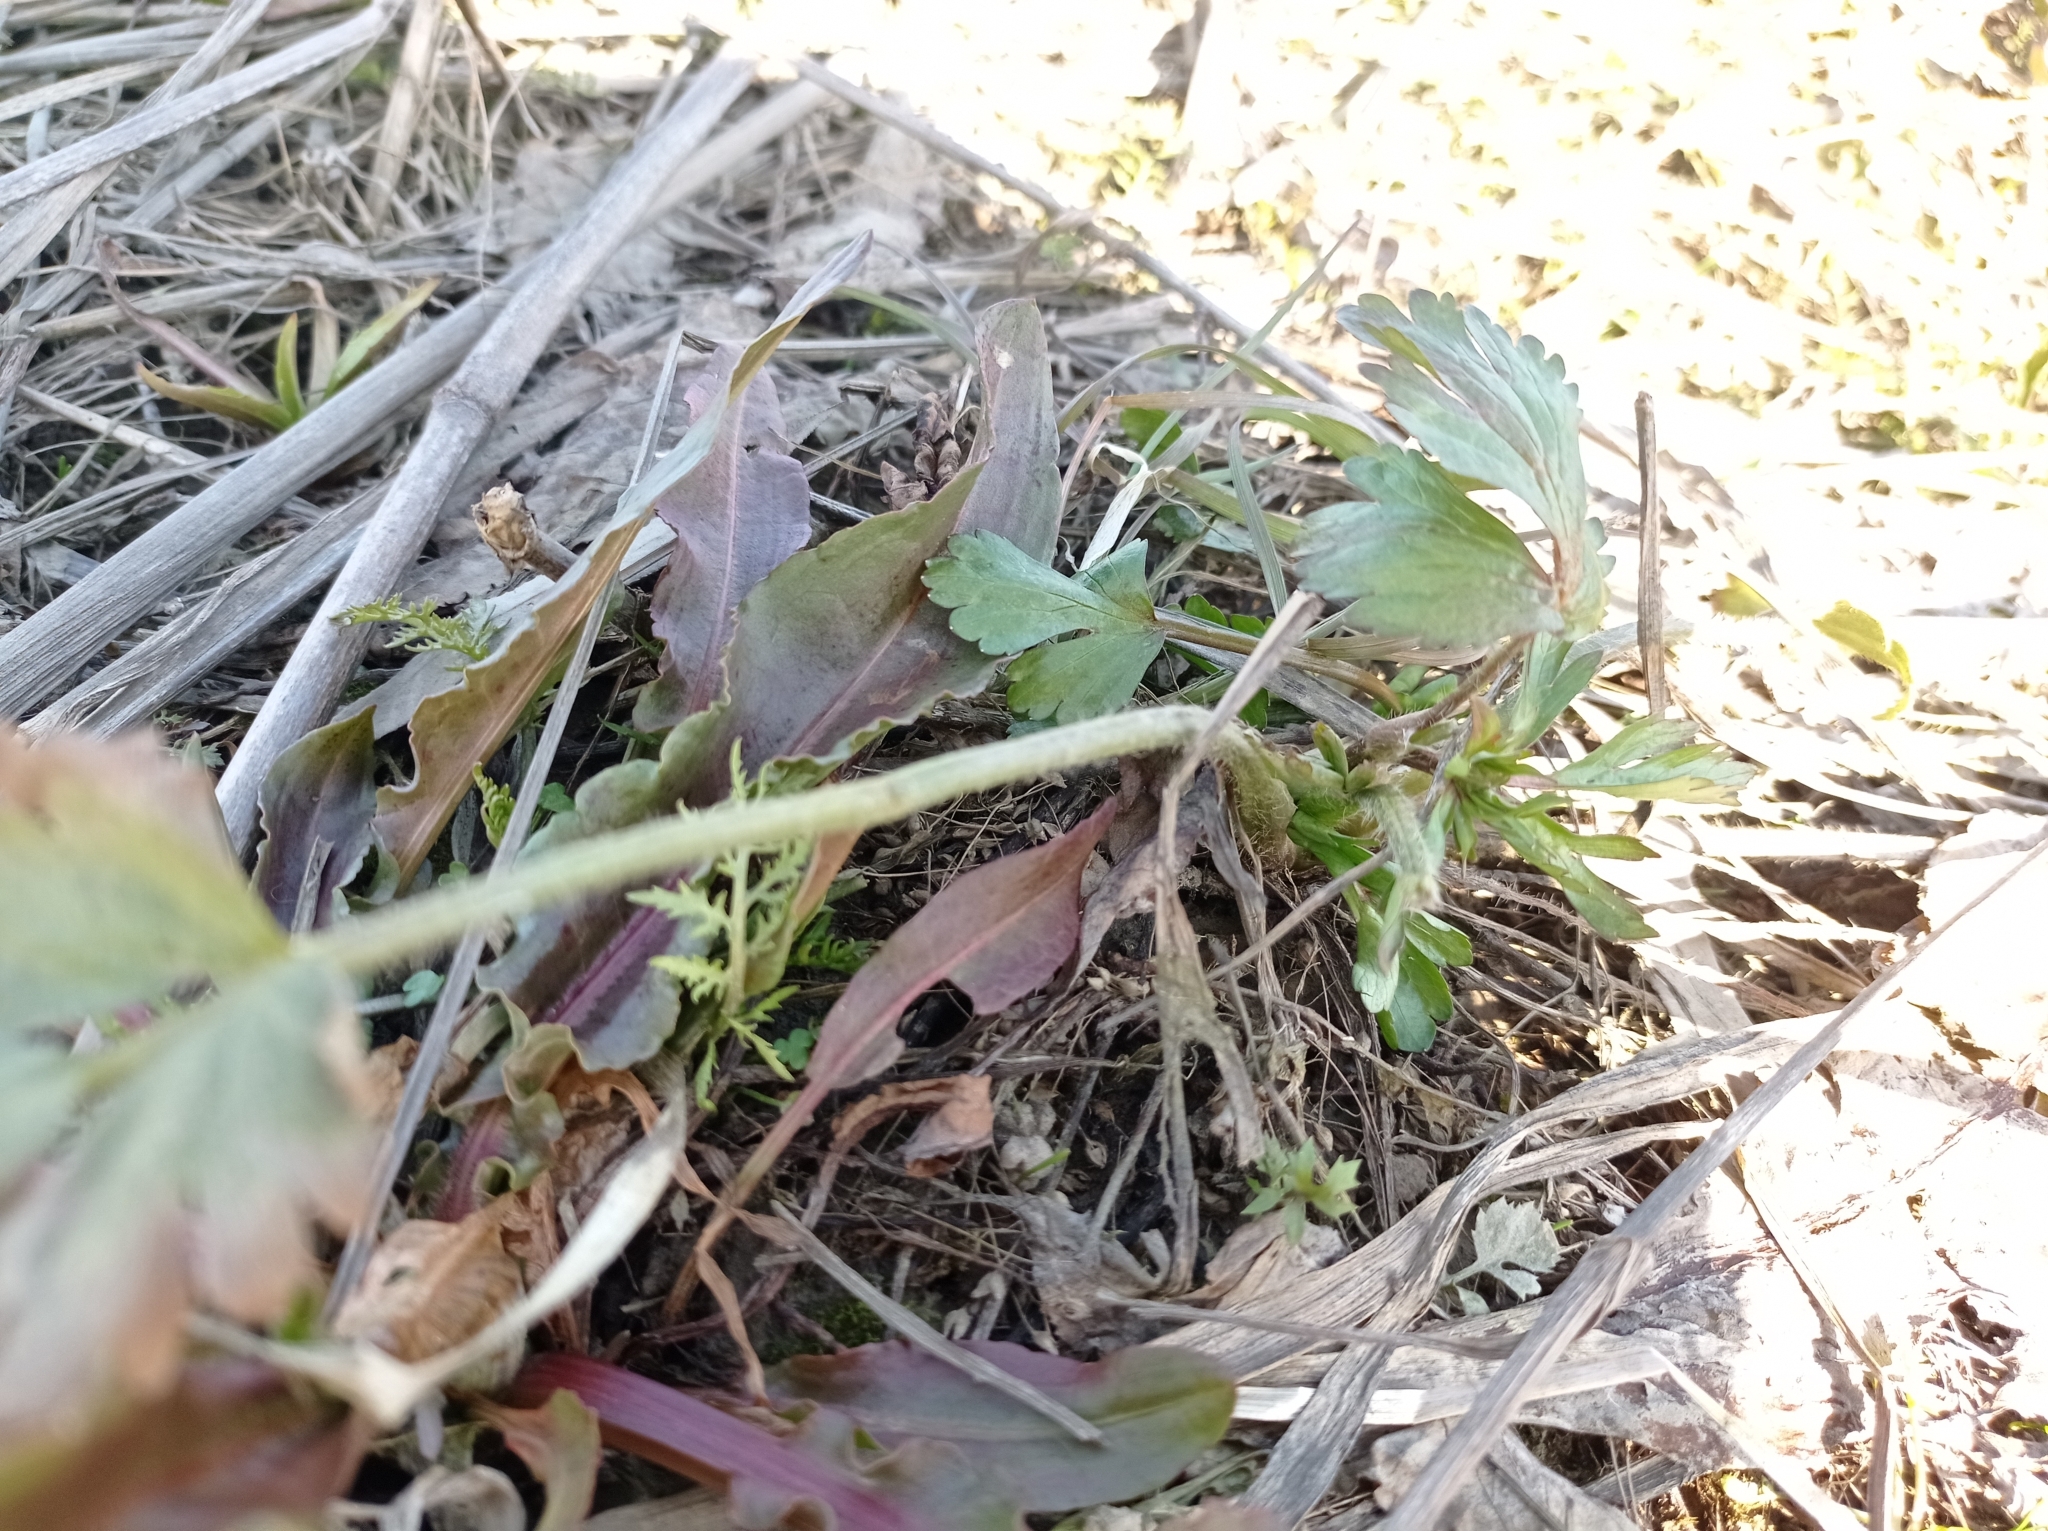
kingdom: Plantae
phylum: Tracheophyta
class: Magnoliopsida
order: Ranunculales
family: Ranunculaceae
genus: Ranunculus
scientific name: Ranunculus auricomus
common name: Goldilocks buttercup
